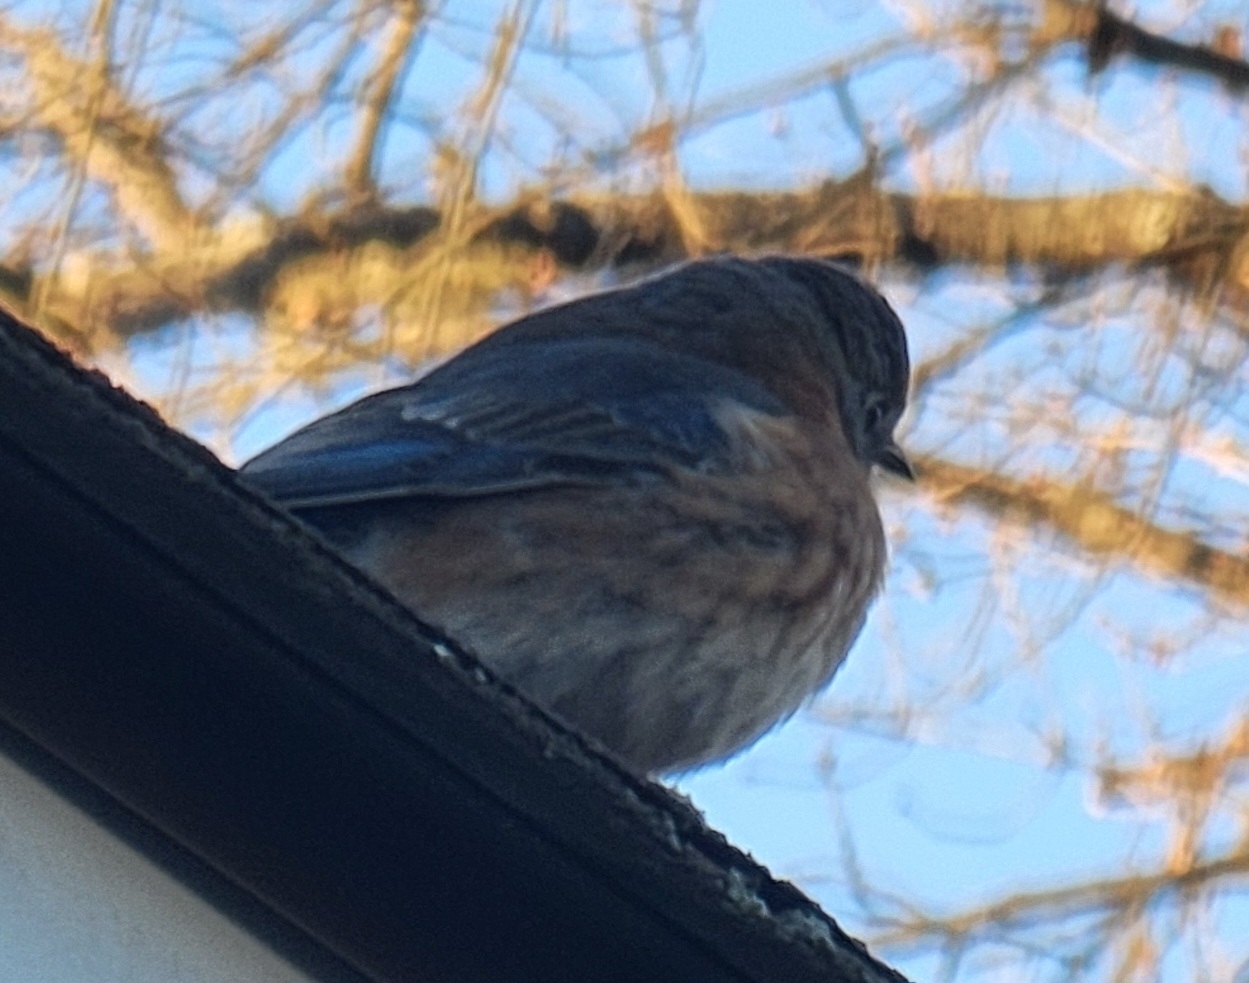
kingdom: Animalia
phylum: Chordata
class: Aves
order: Passeriformes
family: Turdidae
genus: Sialia
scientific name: Sialia sialis
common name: Eastern bluebird
